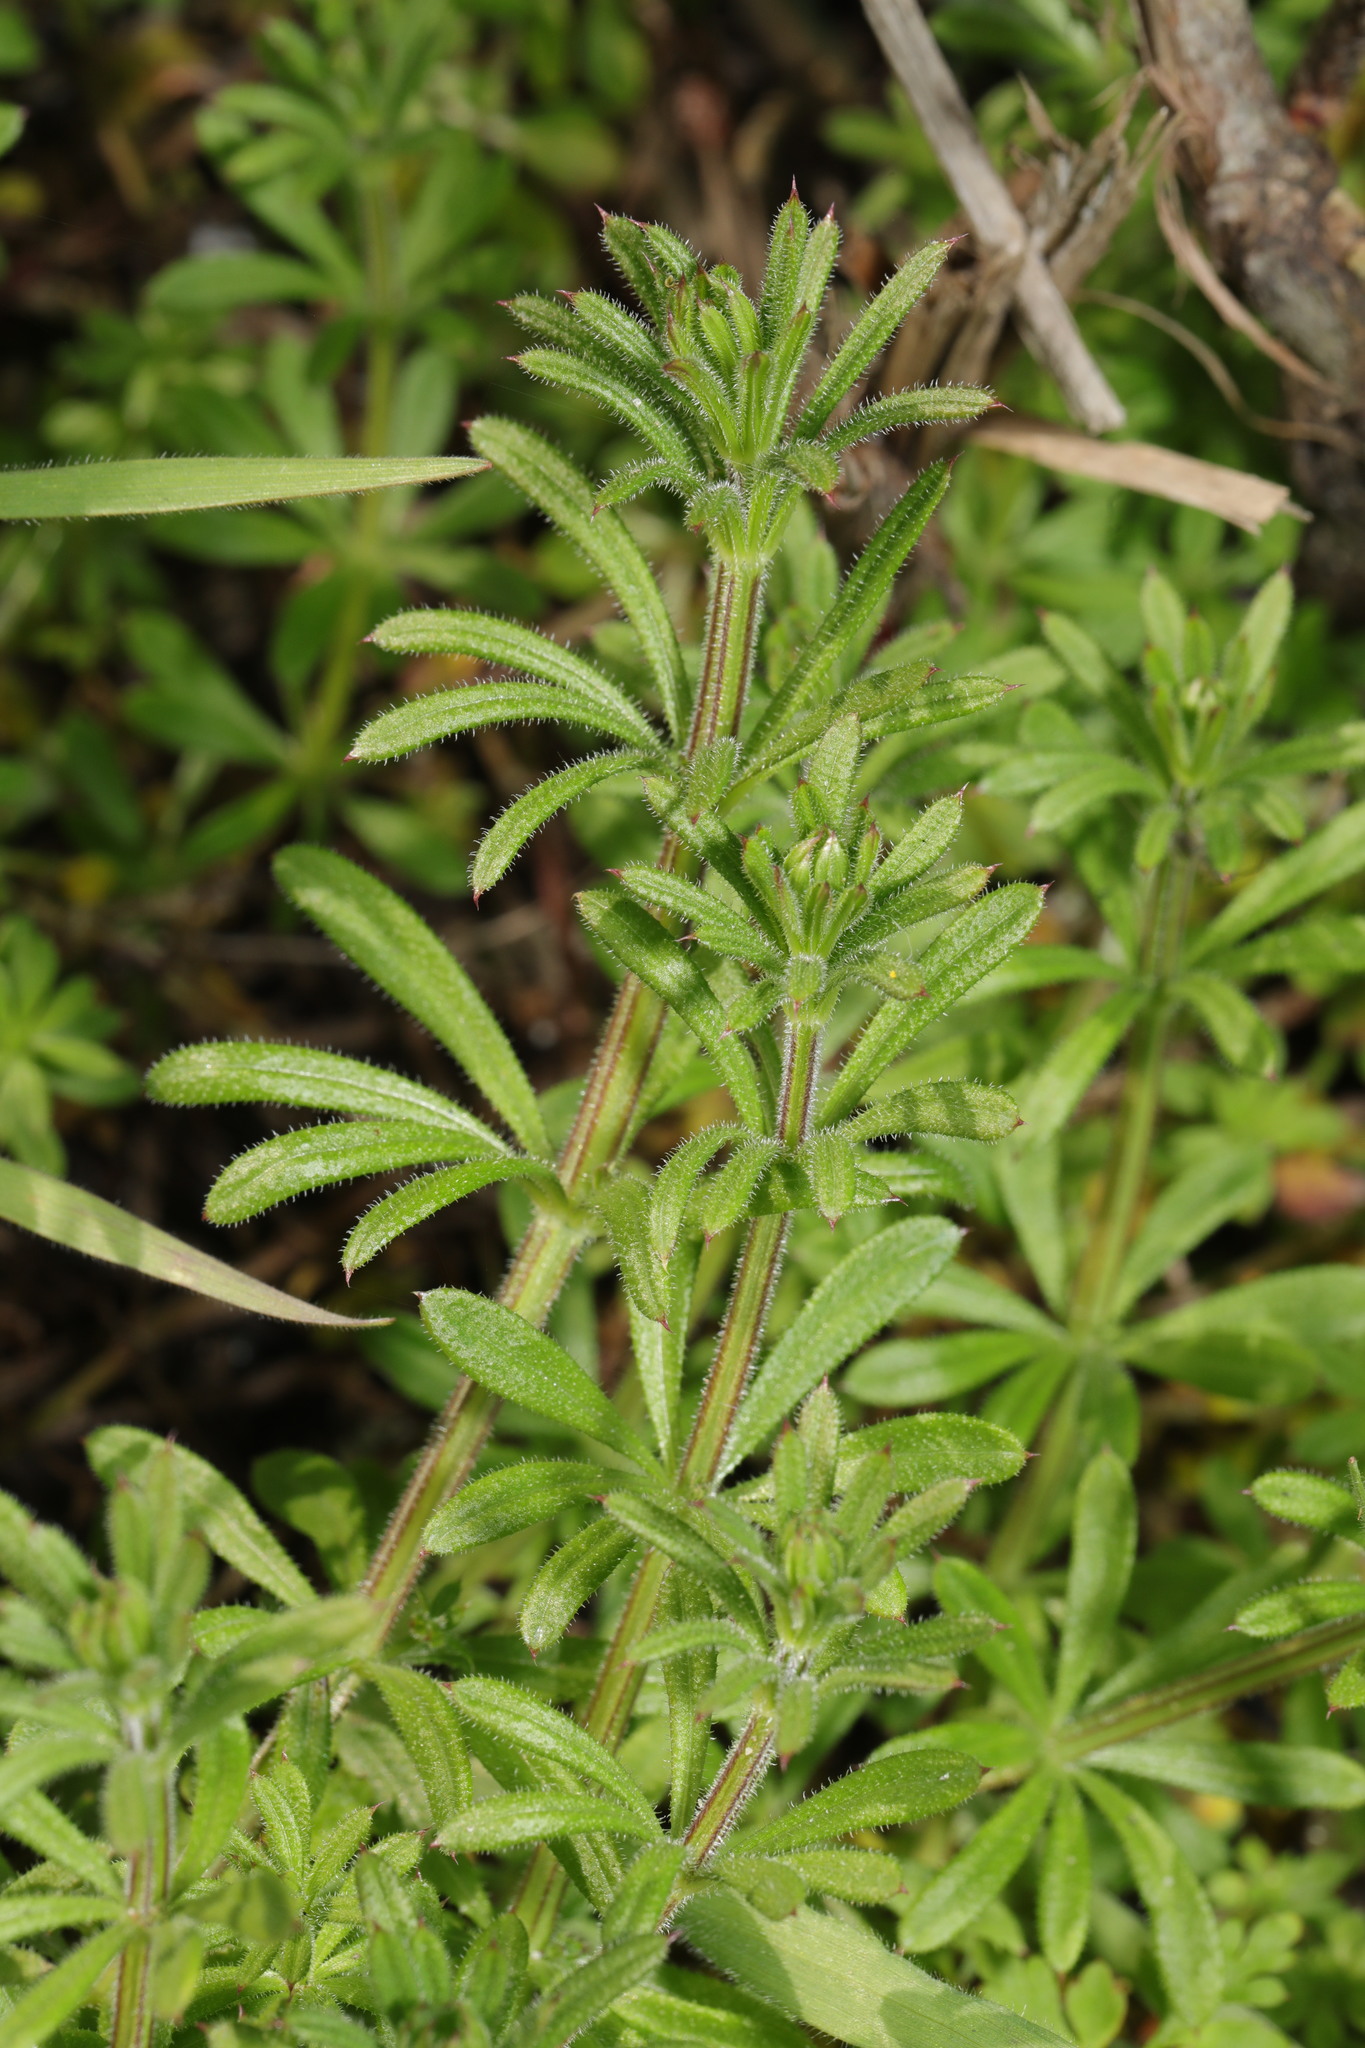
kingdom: Plantae
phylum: Tracheophyta
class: Magnoliopsida
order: Gentianales
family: Rubiaceae
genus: Galium
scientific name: Galium aparine
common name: Cleavers
